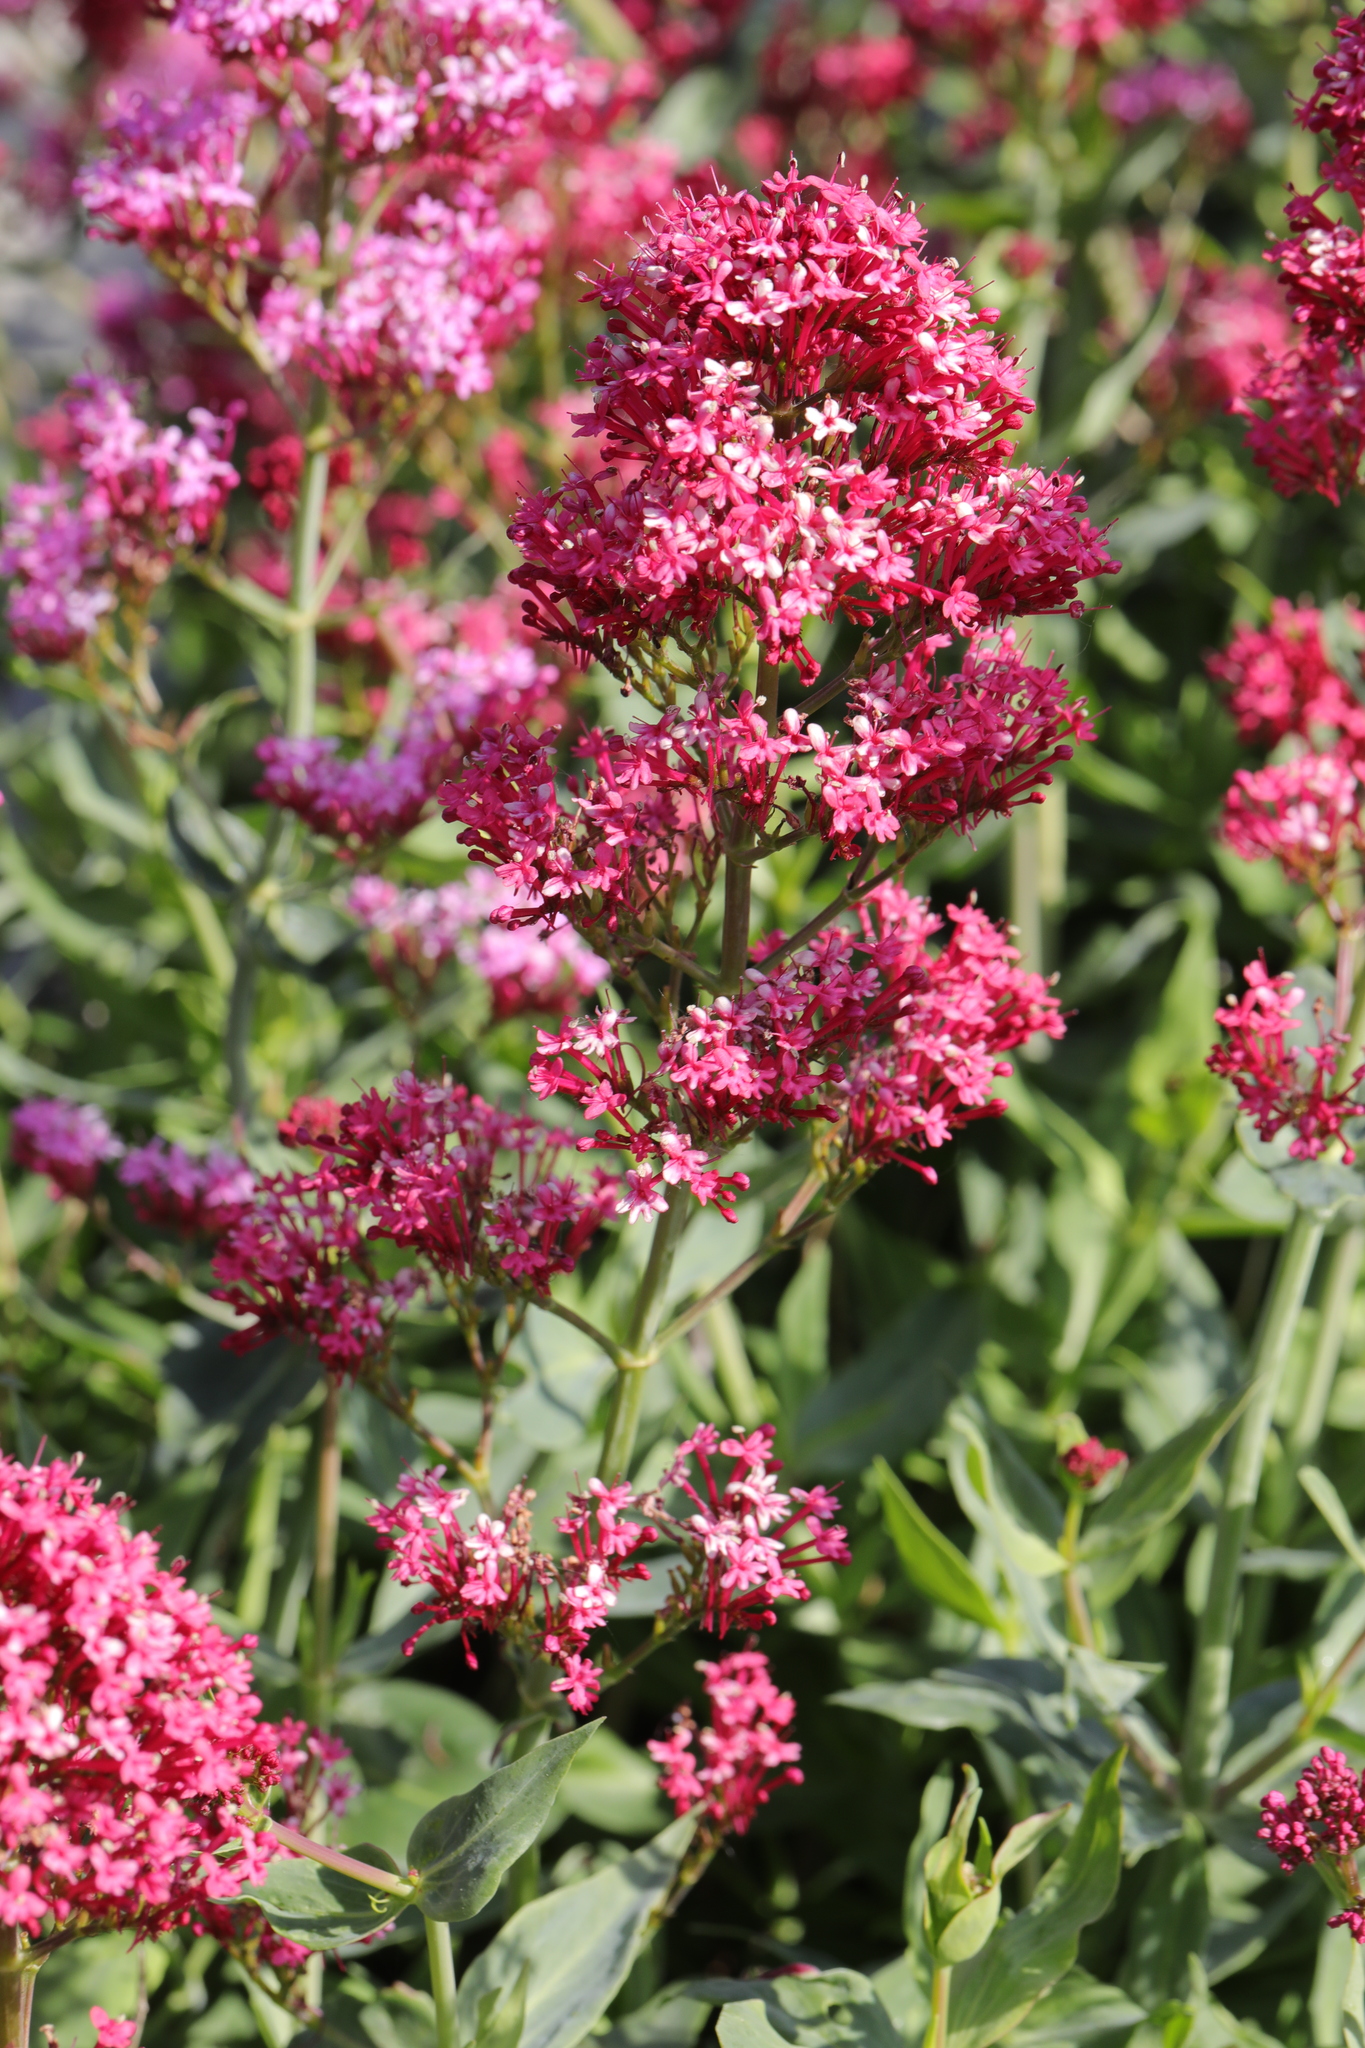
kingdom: Plantae
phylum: Tracheophyta
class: Magnoliopsida
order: Dipsacales
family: Caprifoliaceae
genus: Centranthus
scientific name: Centranthus ruber
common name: Red valerian
